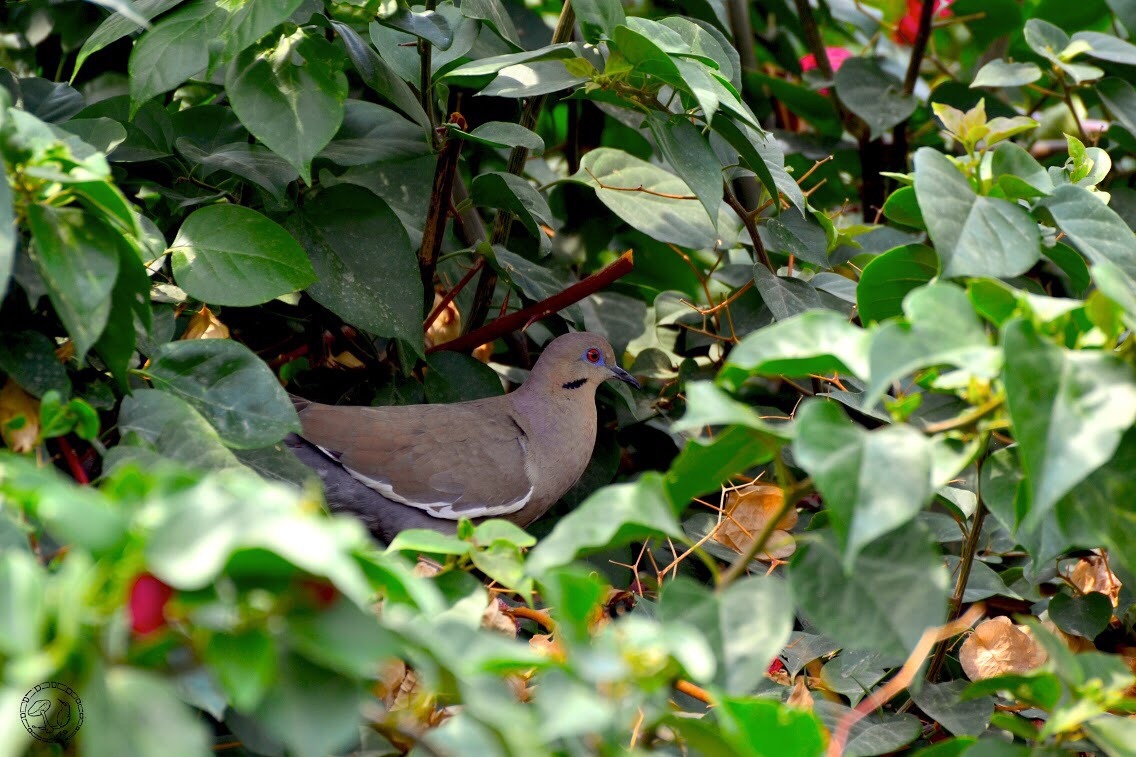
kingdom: Animalia
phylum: Chordata
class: Aves
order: Columbiformes
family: Columbidae
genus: Zenaida
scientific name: Zenaida asiatica
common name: White-winged dove
